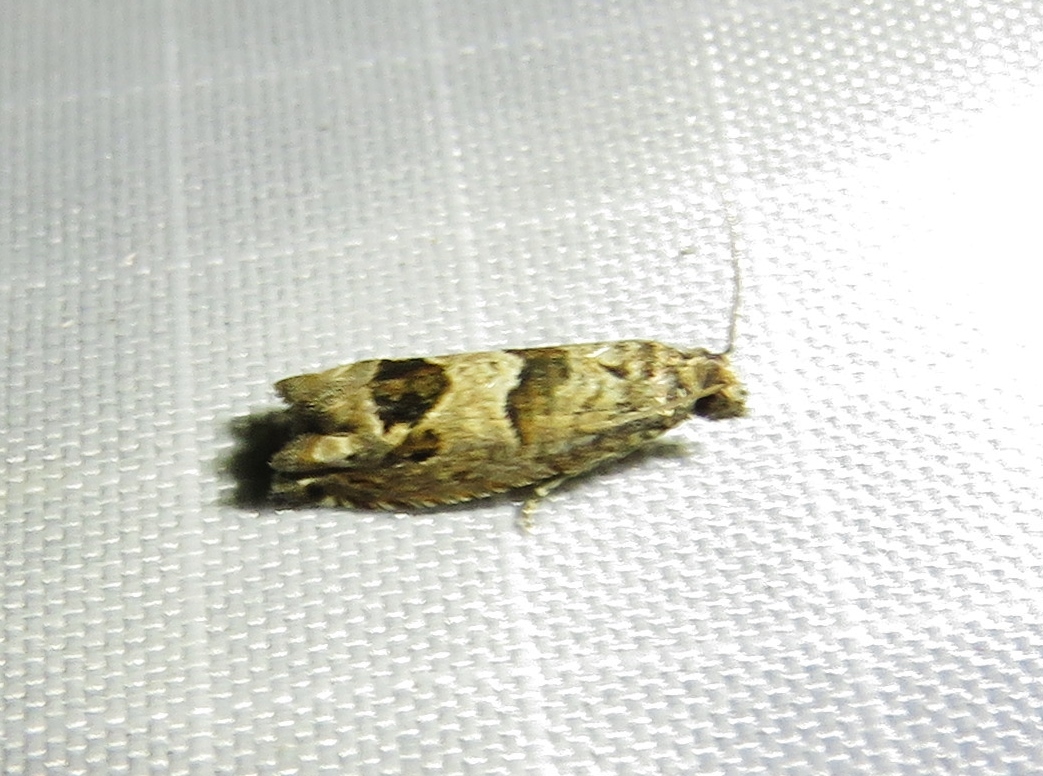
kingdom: Animalia
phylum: Arthropoda
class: Insecta
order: Lepidoptera
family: Tortricidae
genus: Sonia
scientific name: Sonia constrictana
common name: Constricted sonia moth
